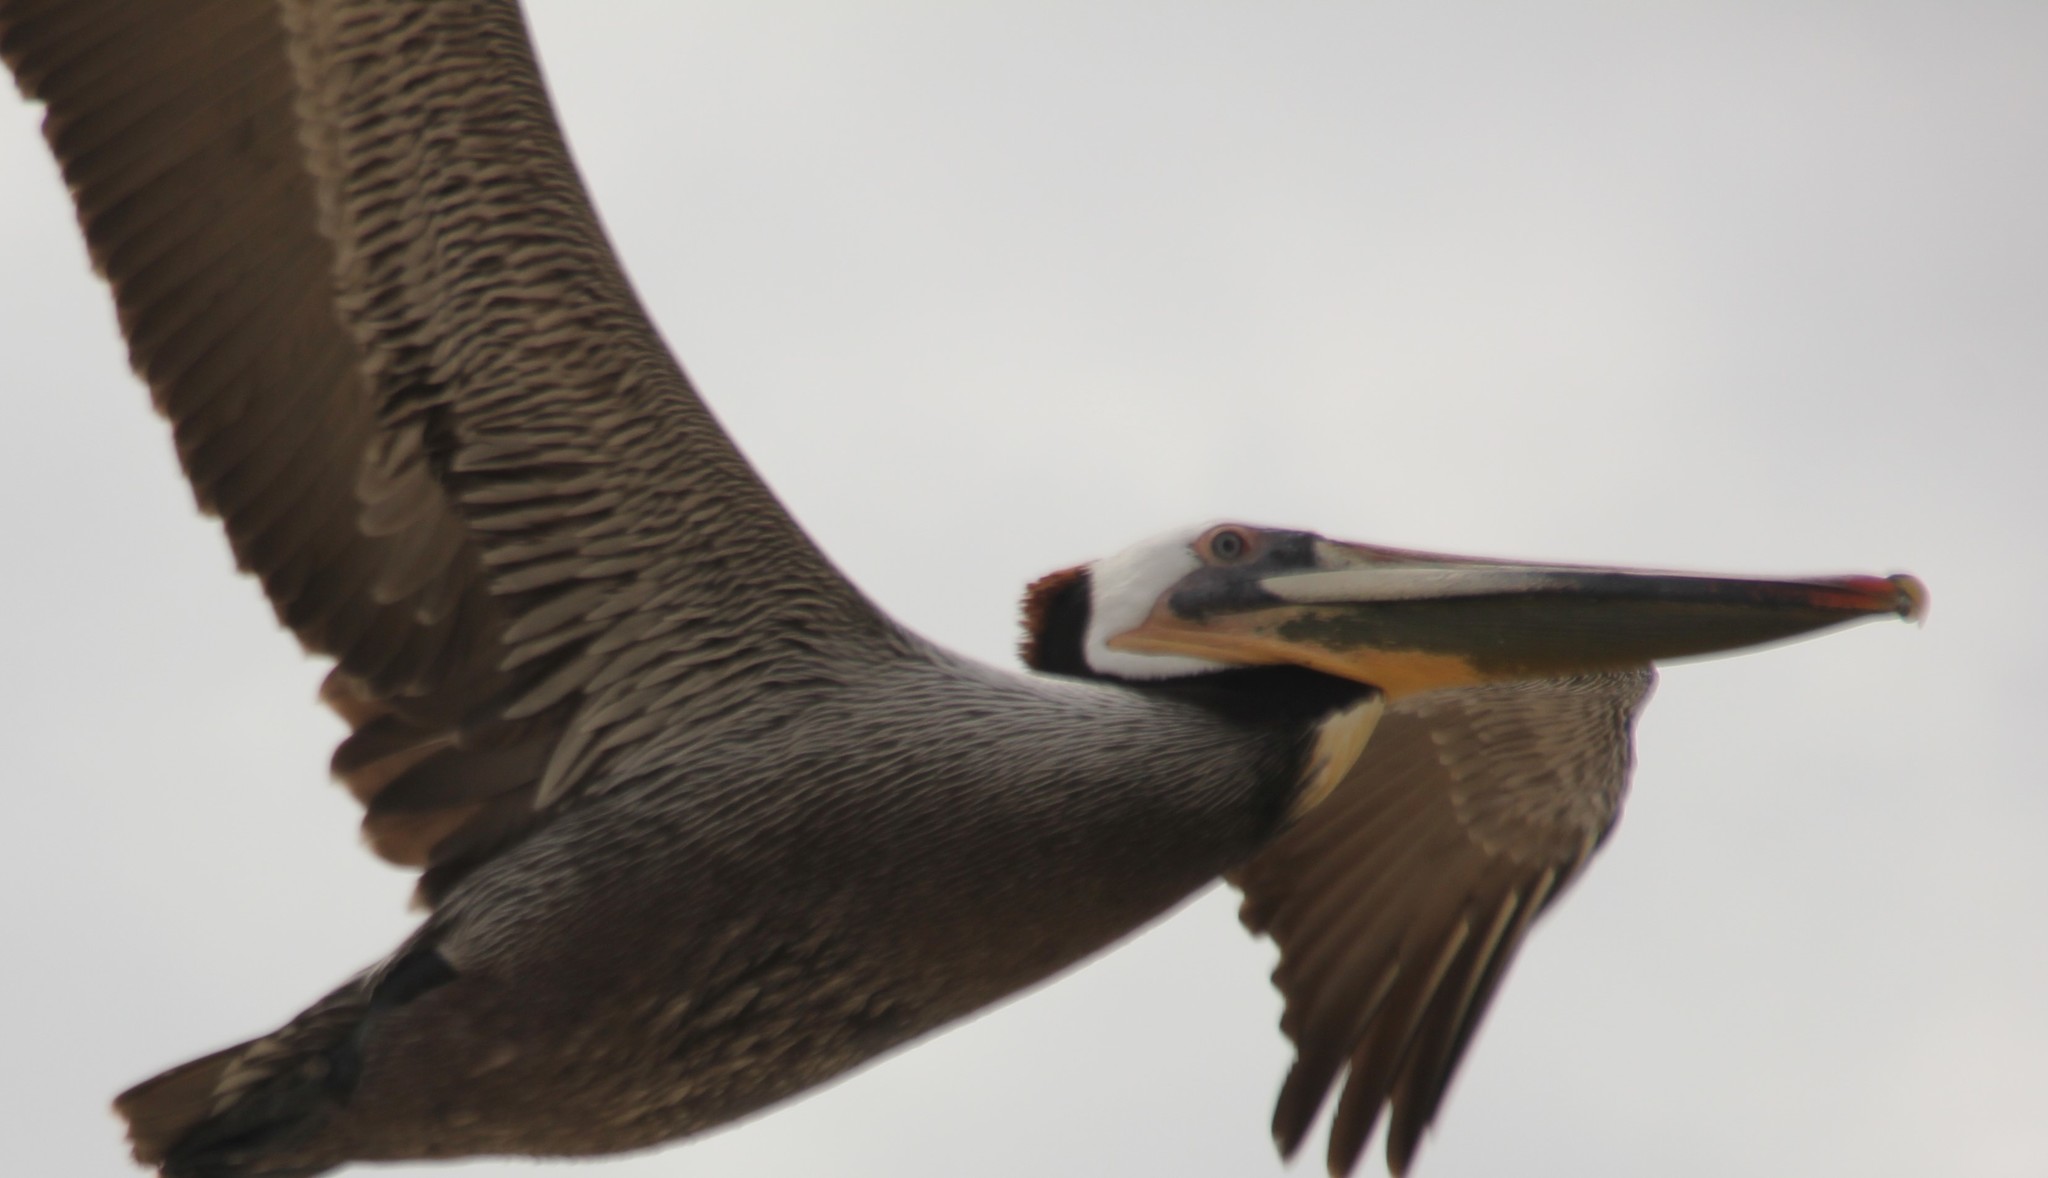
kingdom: Animalia
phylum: Chordata
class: Aves
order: Pelecaniformes
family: Pelecanidae
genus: Pelecanus
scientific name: Pelecanus occidentalis
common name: Brown pelican
